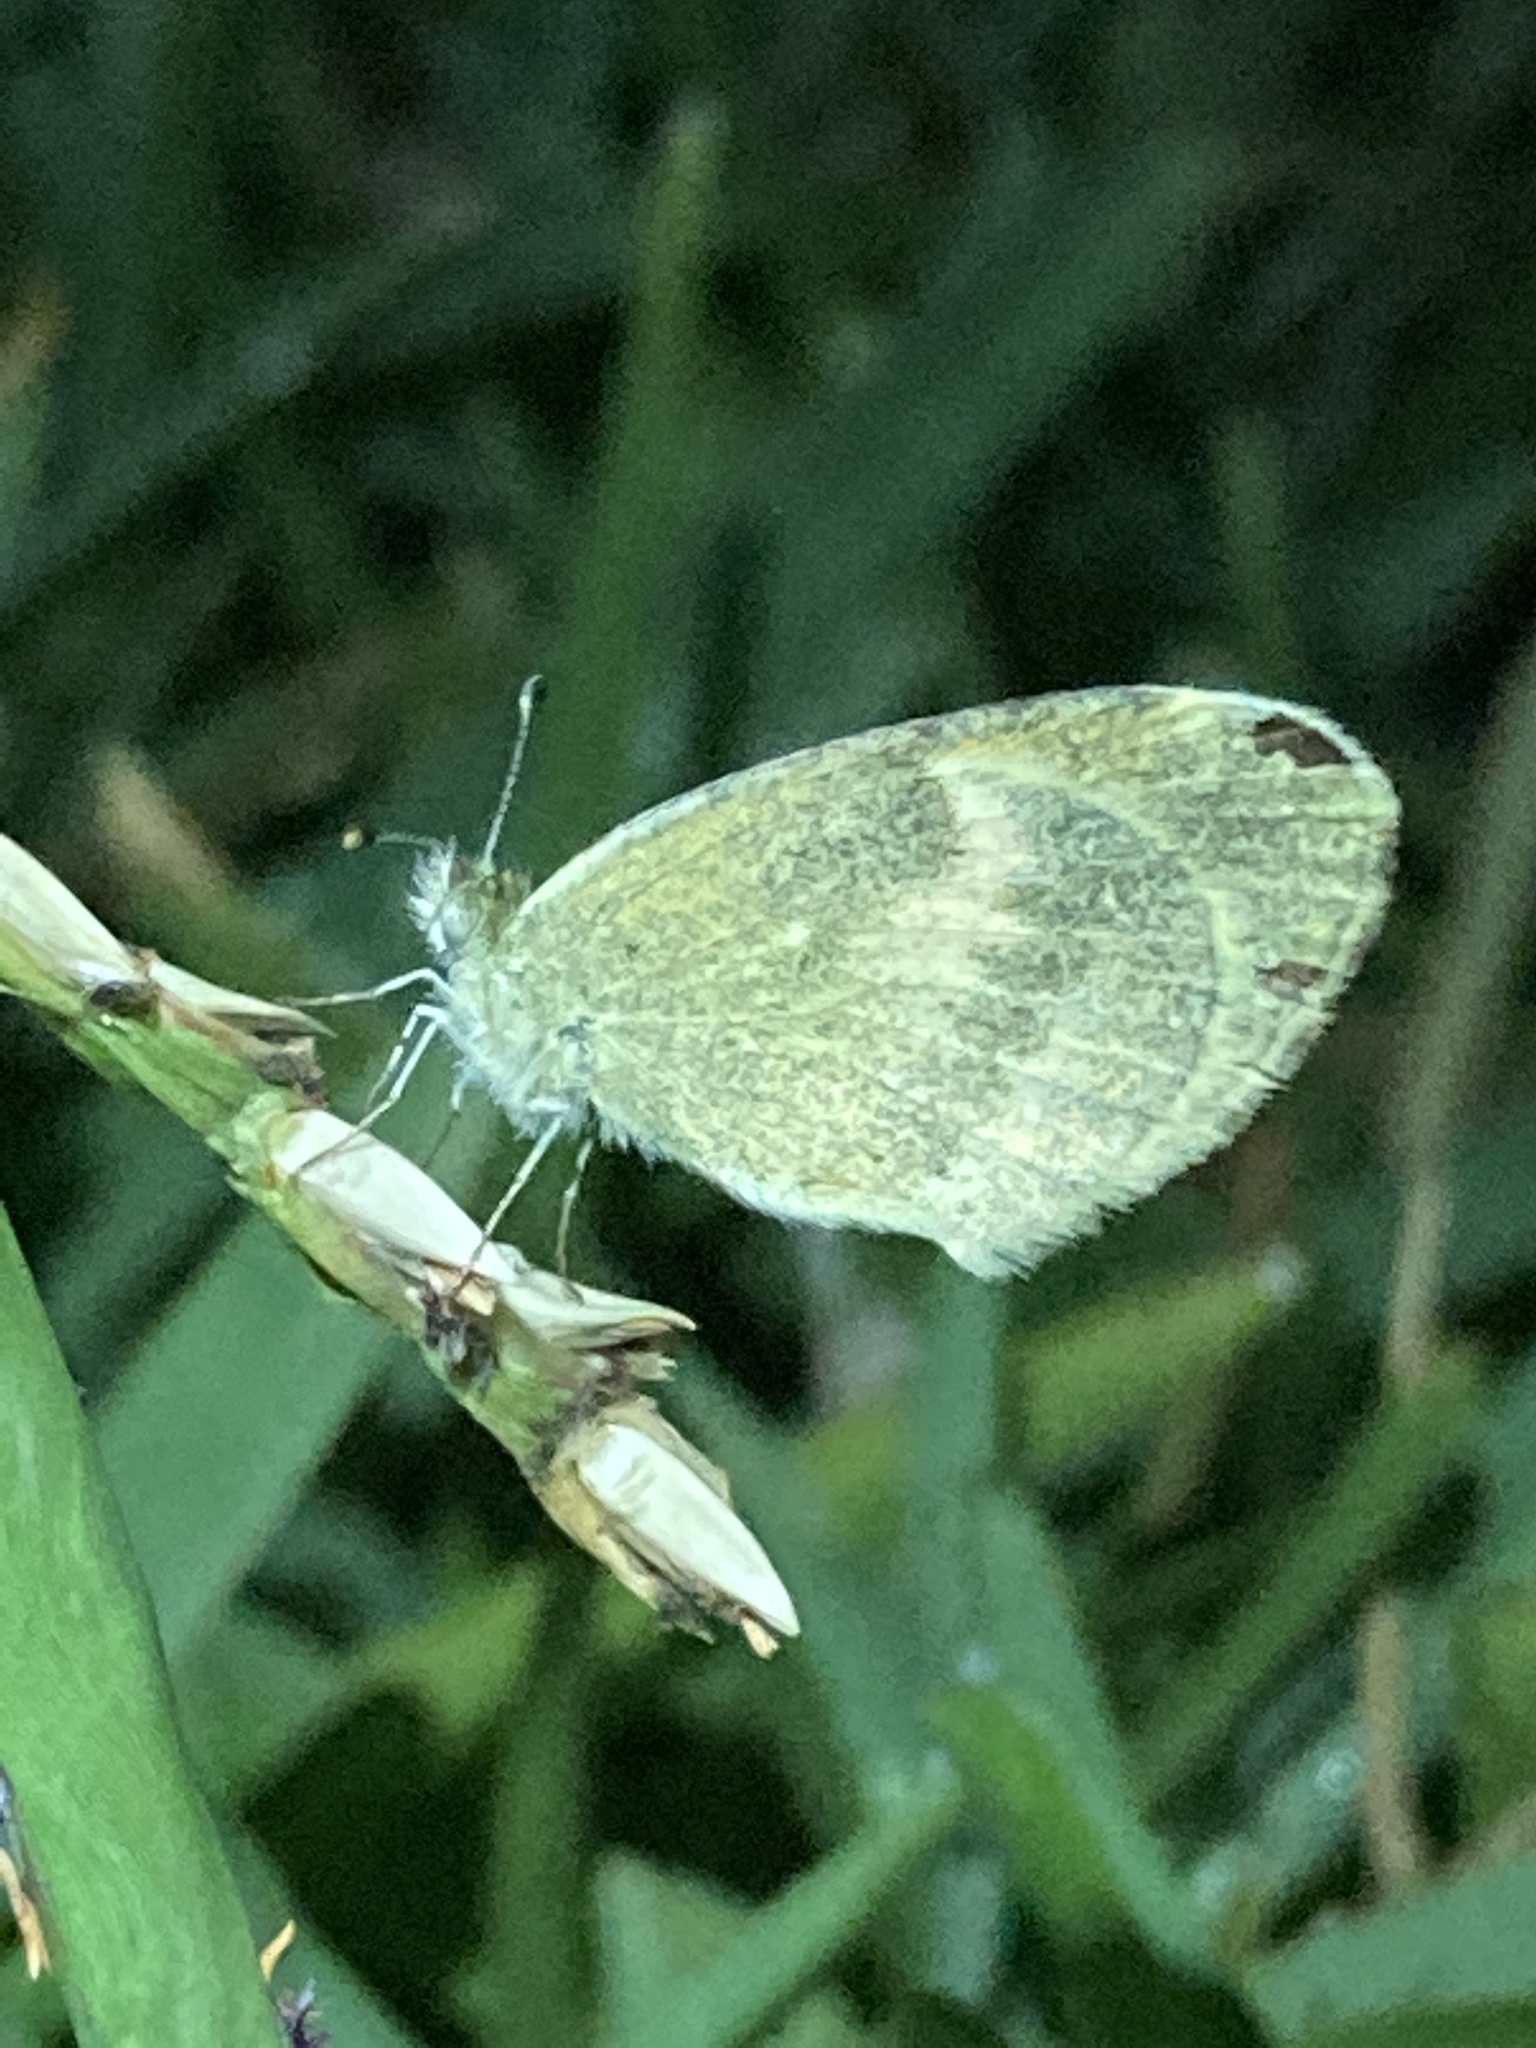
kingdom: Animalia
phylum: Arthropoda
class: Insecta
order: Lepidoptera
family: Pieridae
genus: Nathalis
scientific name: Nathalis iole
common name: Dainty sulphur
